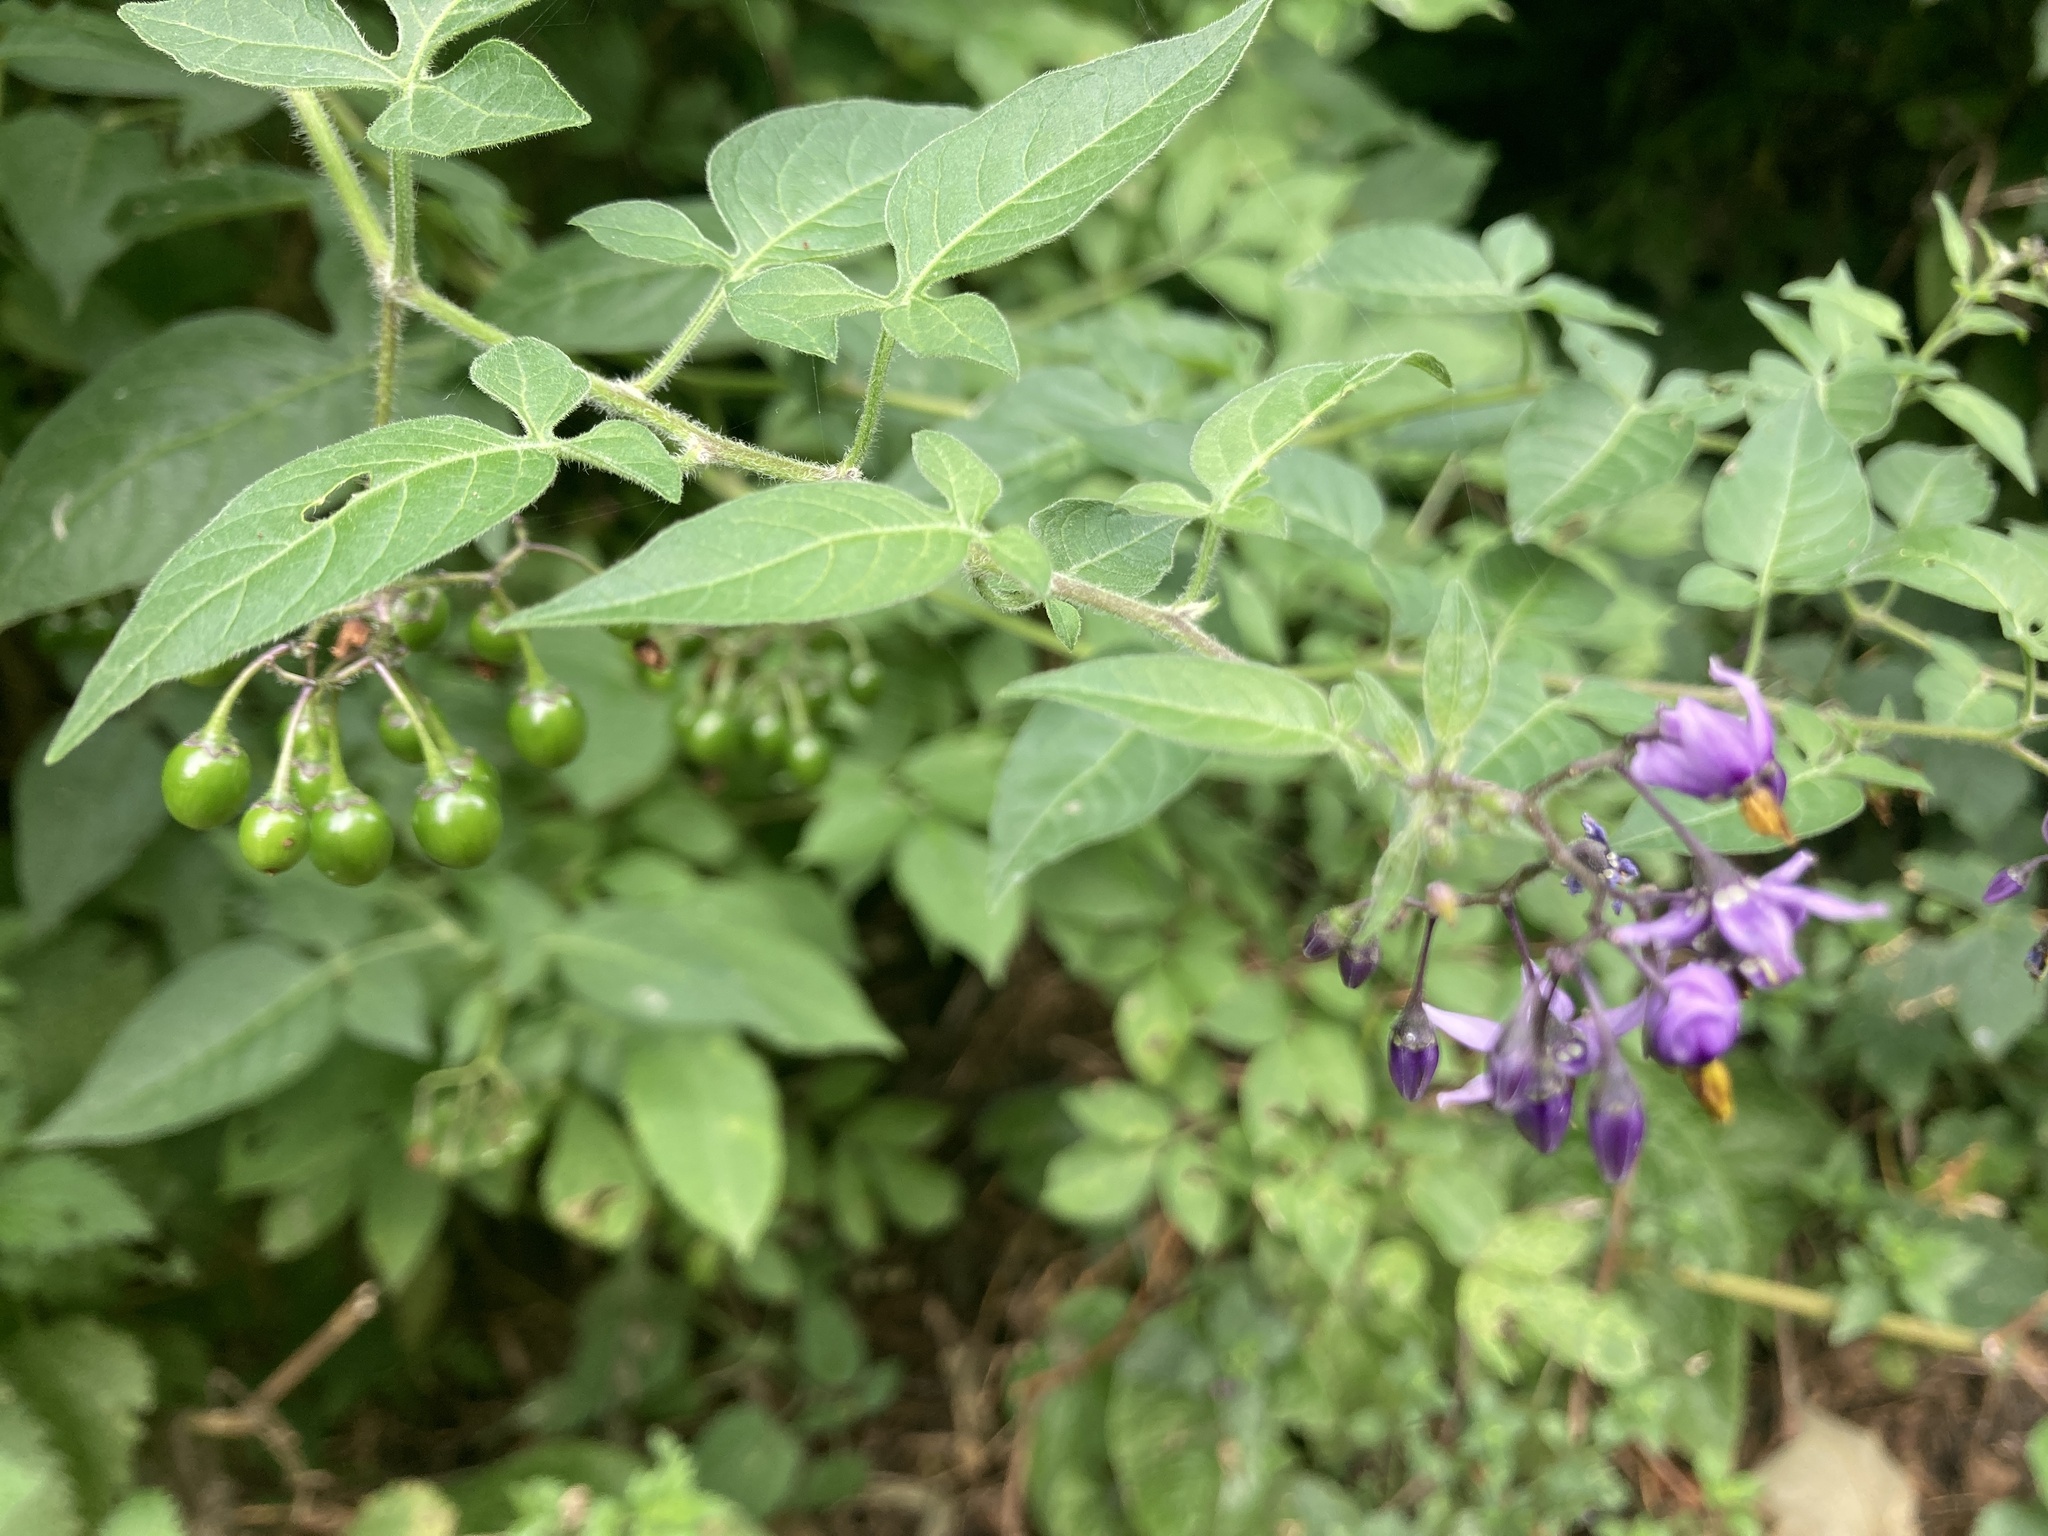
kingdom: Plantae
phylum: Tracheophyta
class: Magnoliopsida
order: Solanales
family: Solanaceae
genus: Solanum
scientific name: Solanum dulcamara
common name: Climbing nightshade
